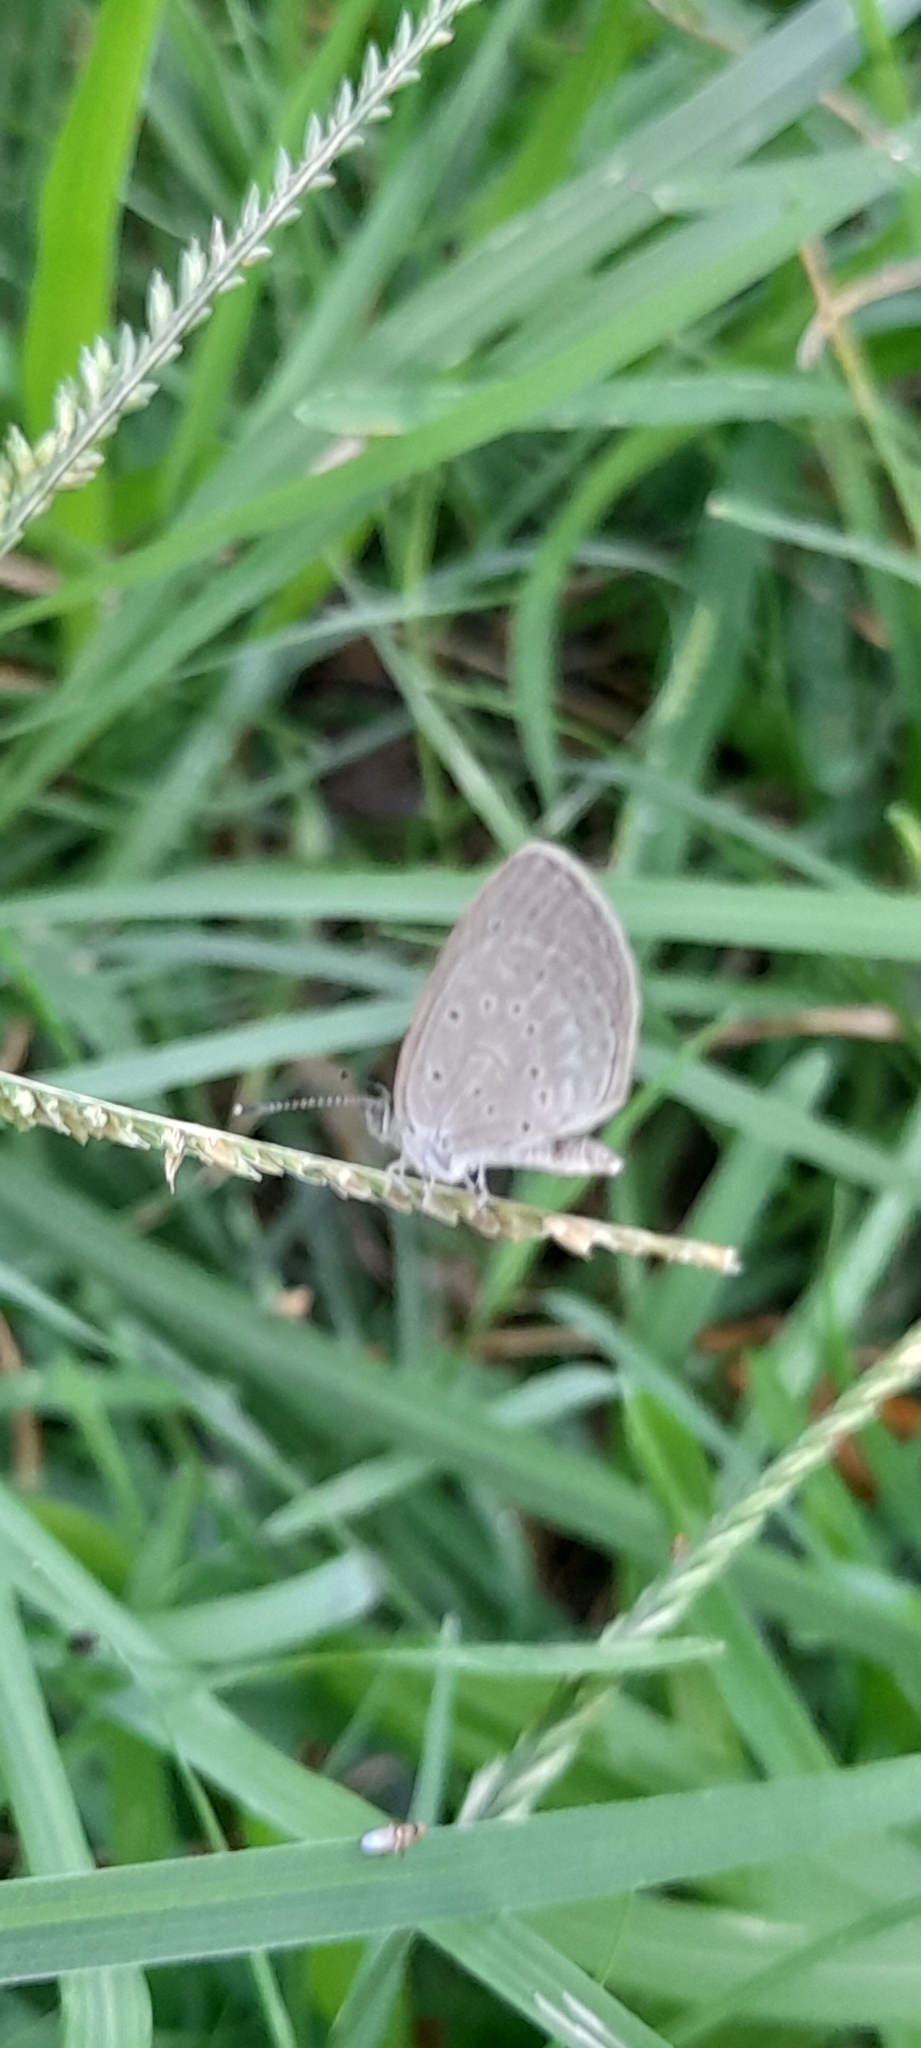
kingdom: Animalia
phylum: Arthropoda
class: Insecta
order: Lepidoptera
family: Lycaenidae
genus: Pseudozizeeria
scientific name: Pseudozizeeria maha
